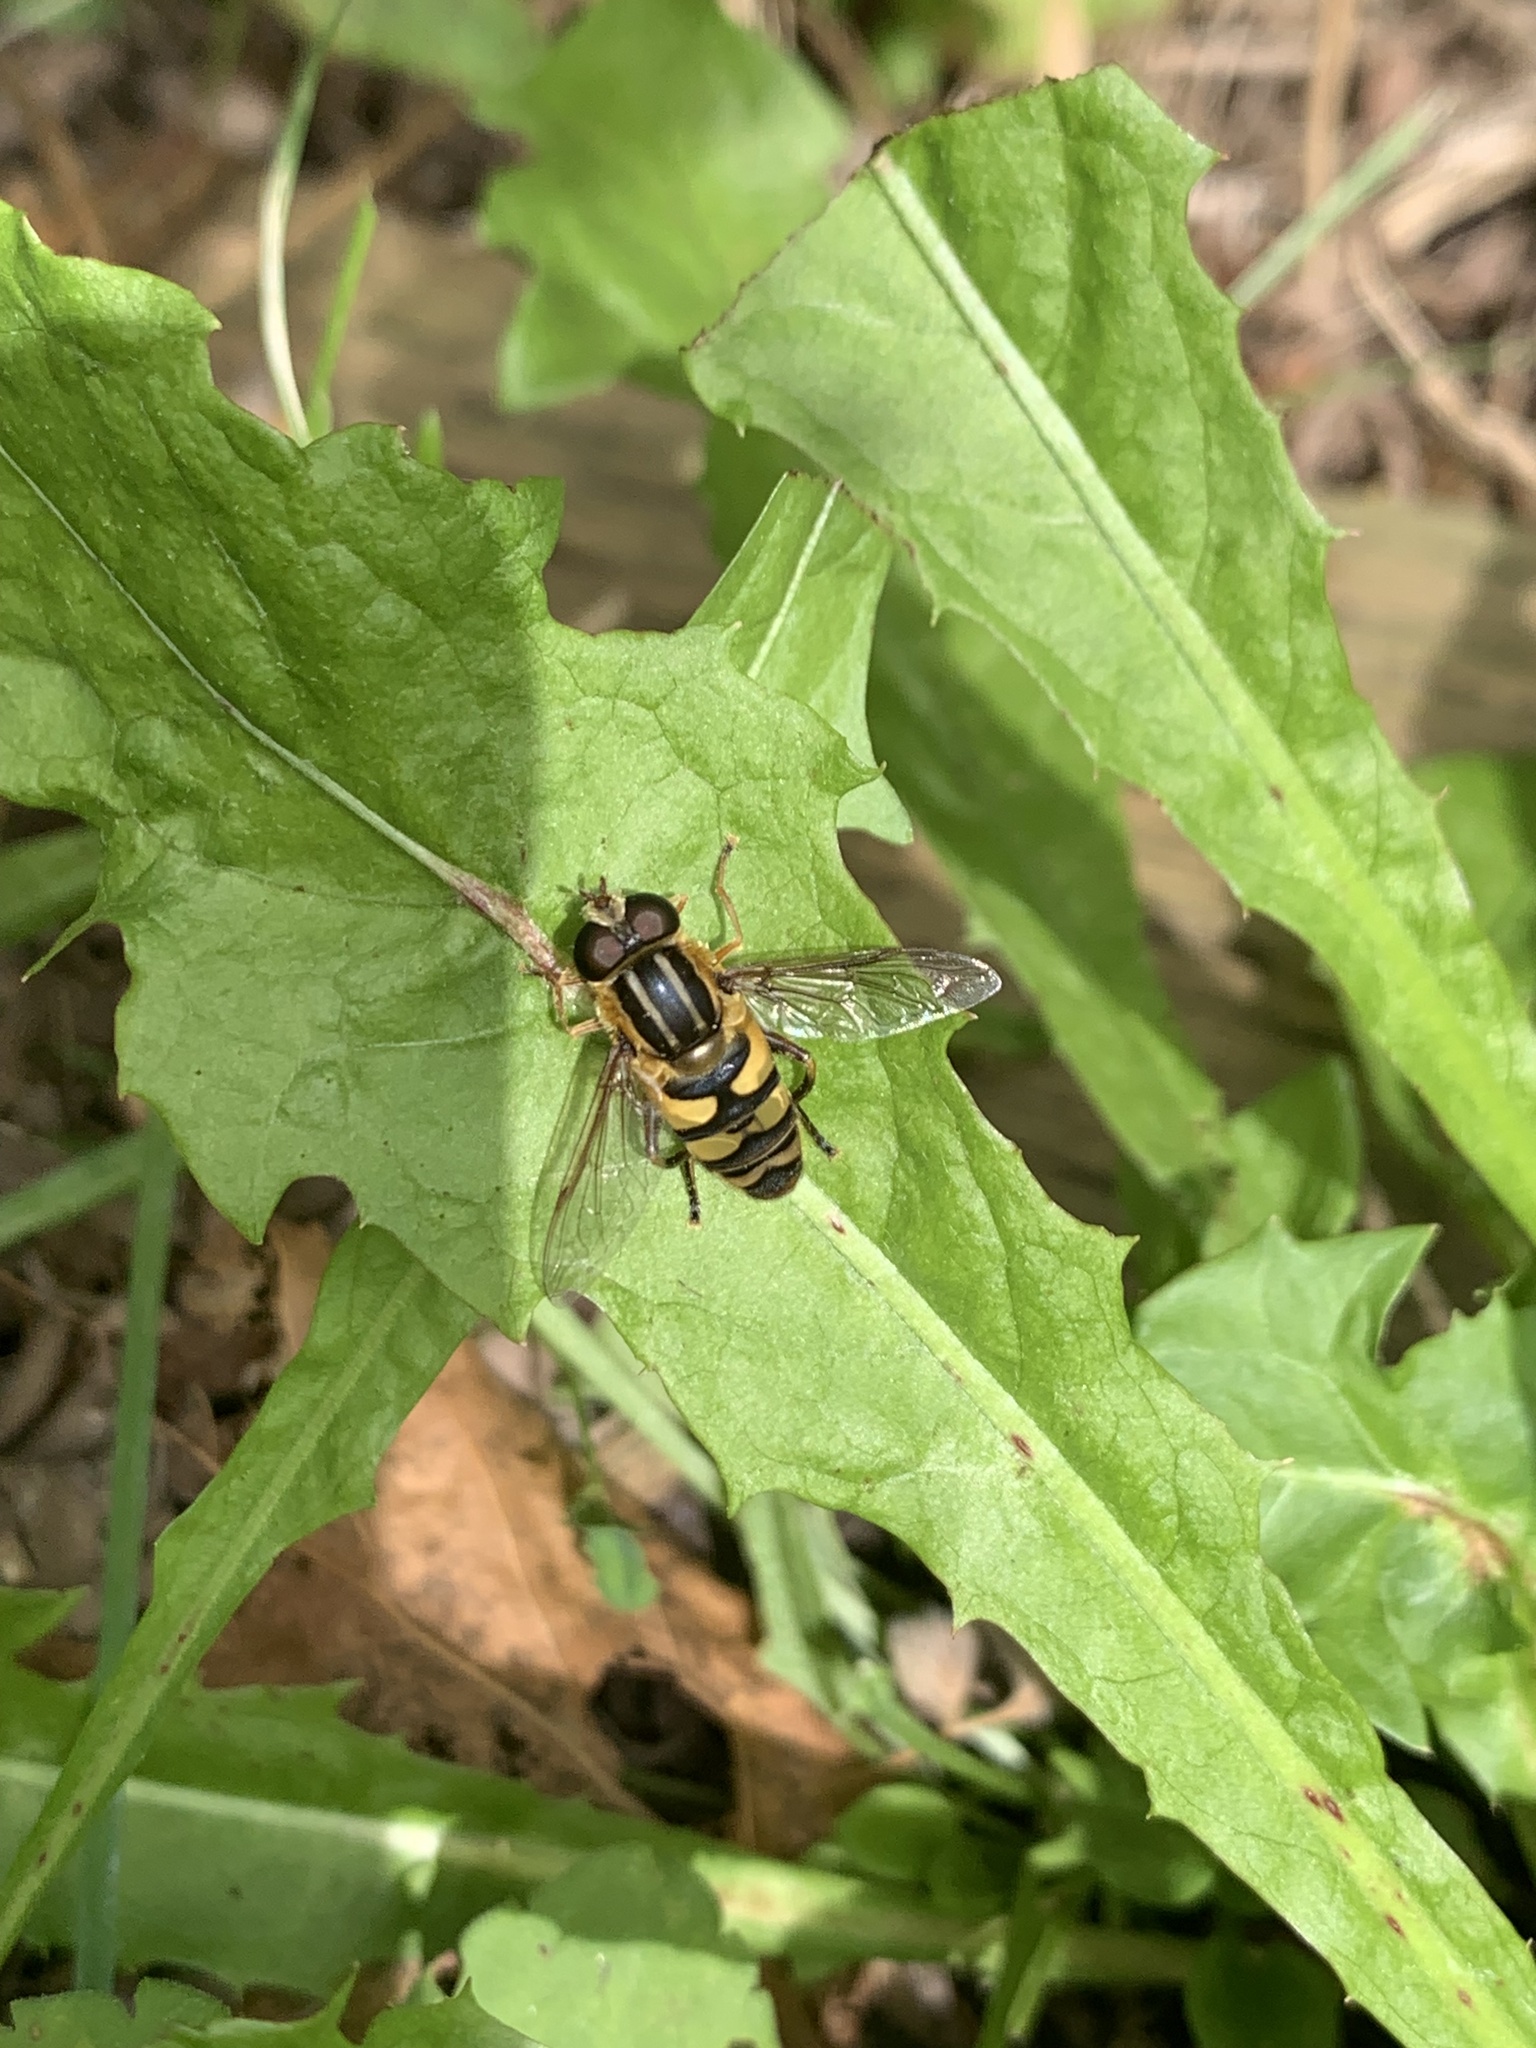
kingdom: Animalia
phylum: Arthropoda
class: Insecta
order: Diptera
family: Syrphidae
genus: Helophilus
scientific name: Helophilus fasciatus
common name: Narrow-headed marsh fly
